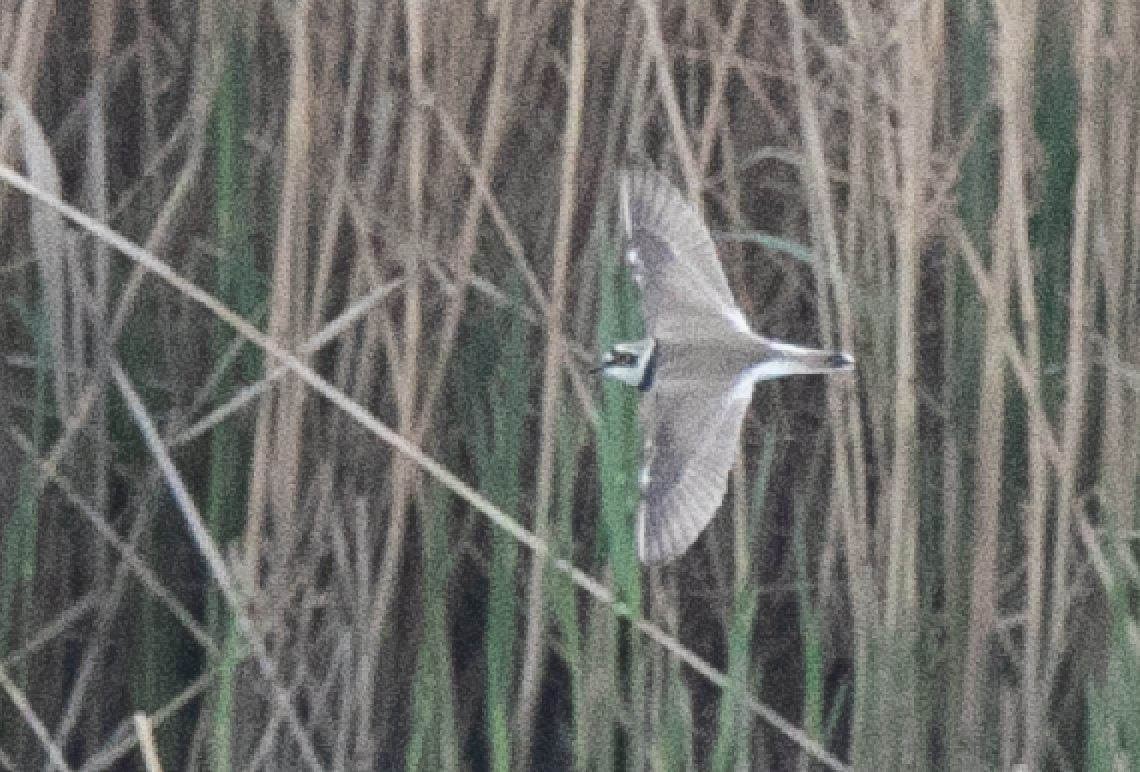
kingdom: Animalia
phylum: Chordata
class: Aves
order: Charadriiformes
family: Charadriidae
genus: Charadrius
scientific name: Charadrius dubius
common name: Little ringed plover
